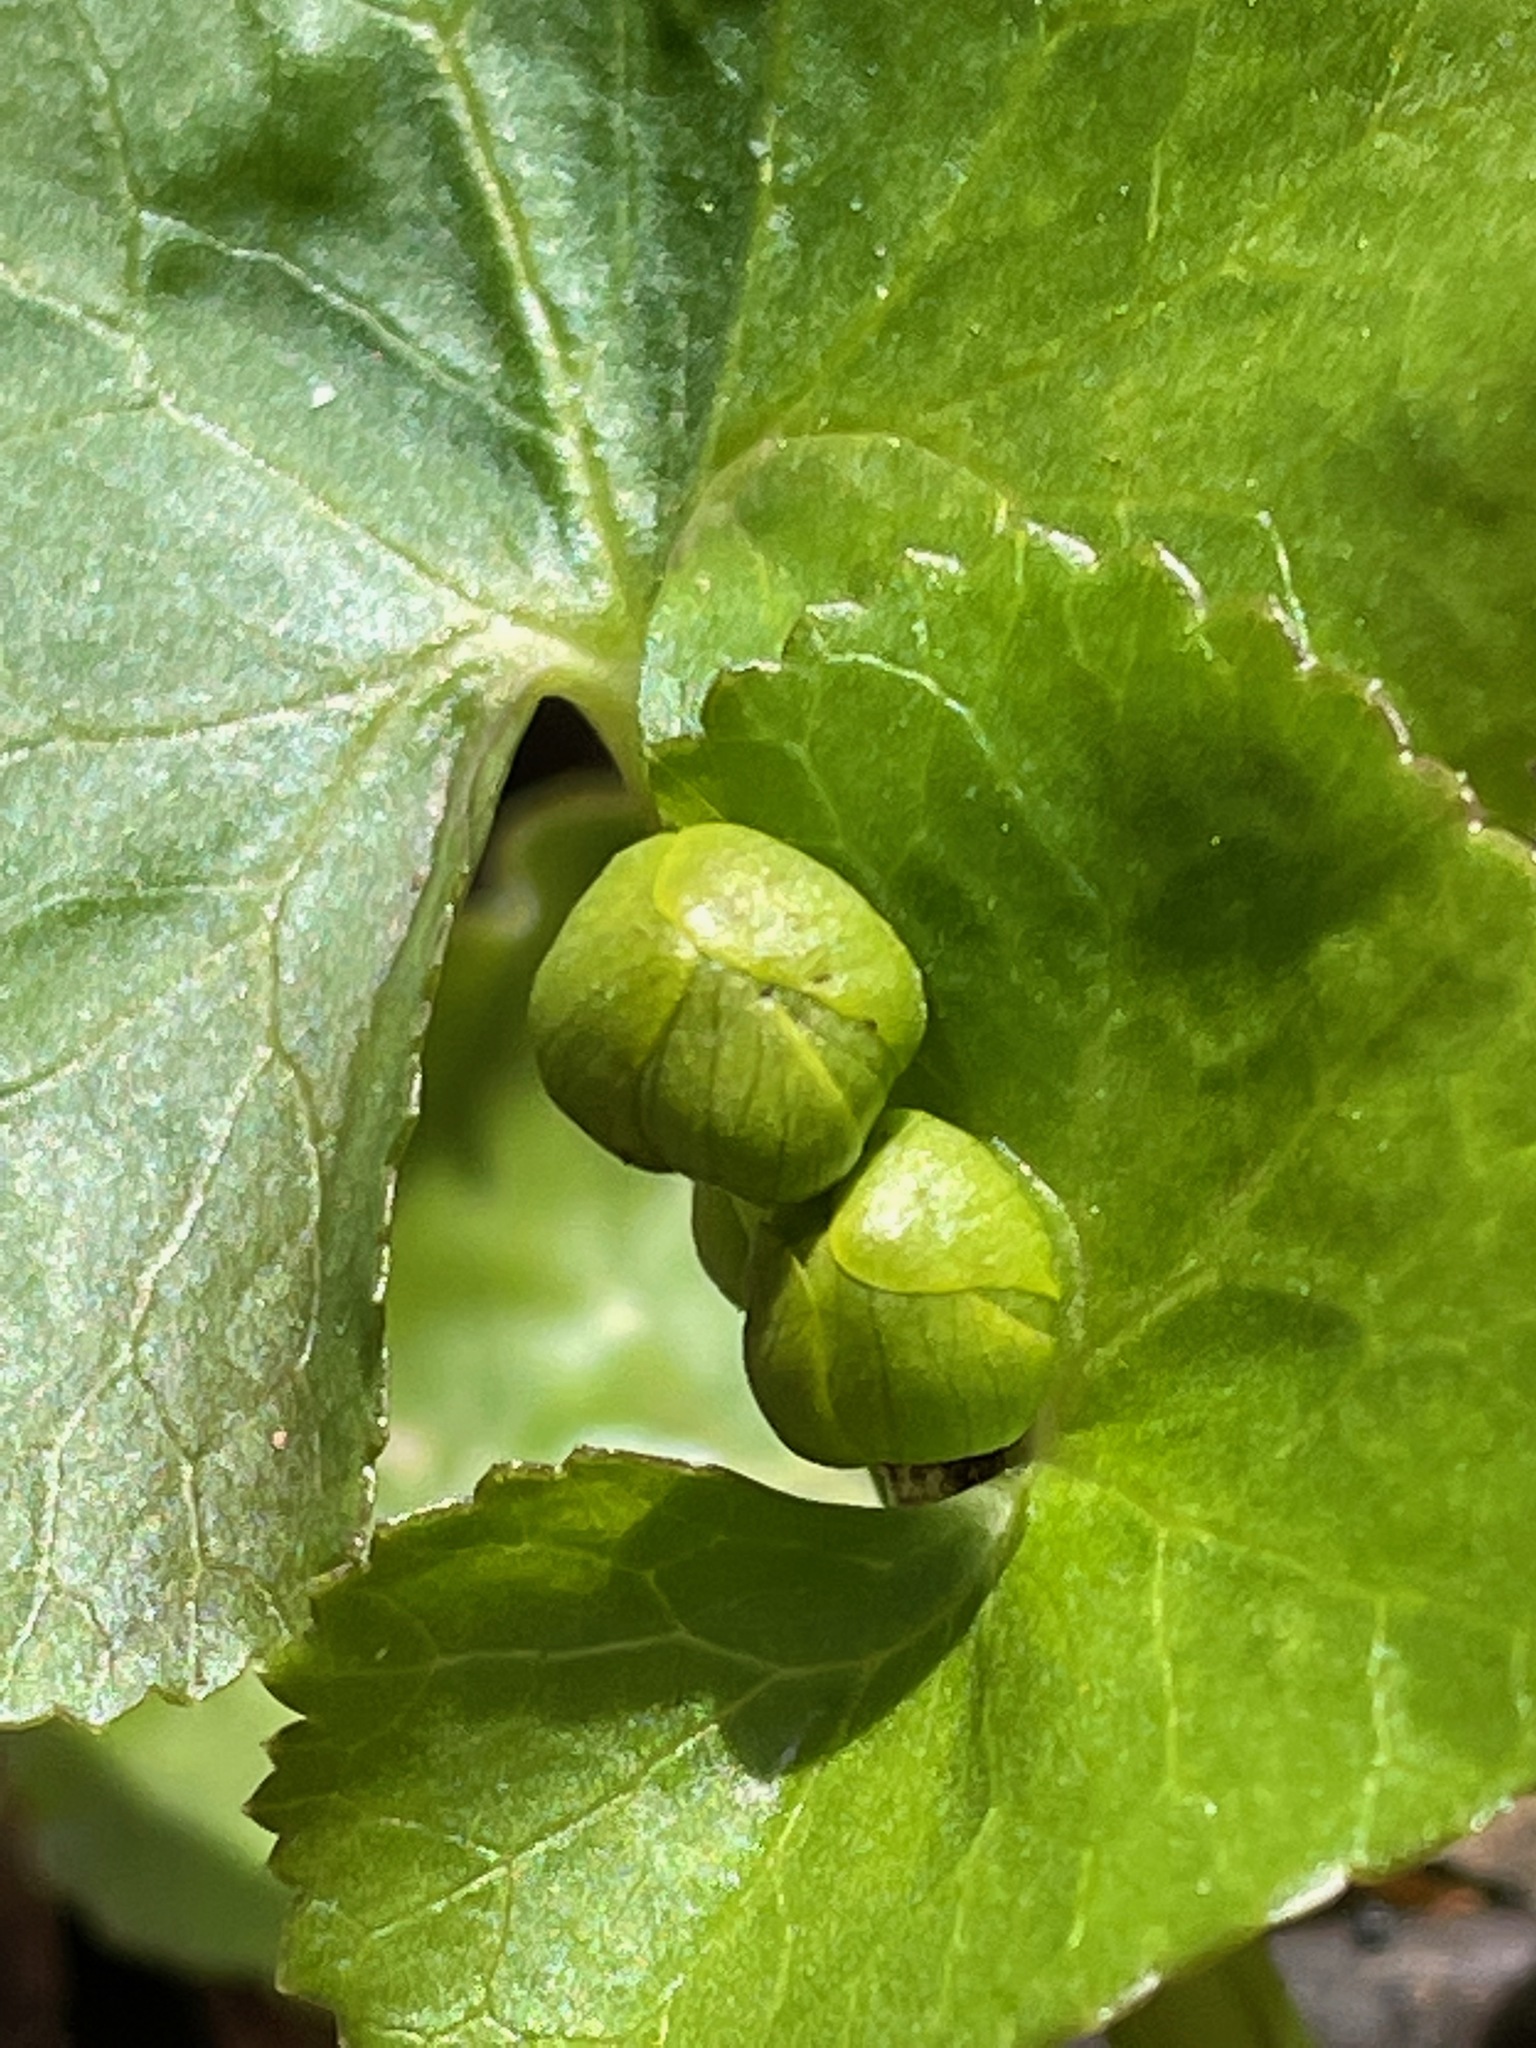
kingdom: Plantae
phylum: Tracheophyta
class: Magnoliopsida
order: Ranunculales
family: Ranunculaceae
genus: Caltha
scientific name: Caltha palustris
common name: Marsh marigold
